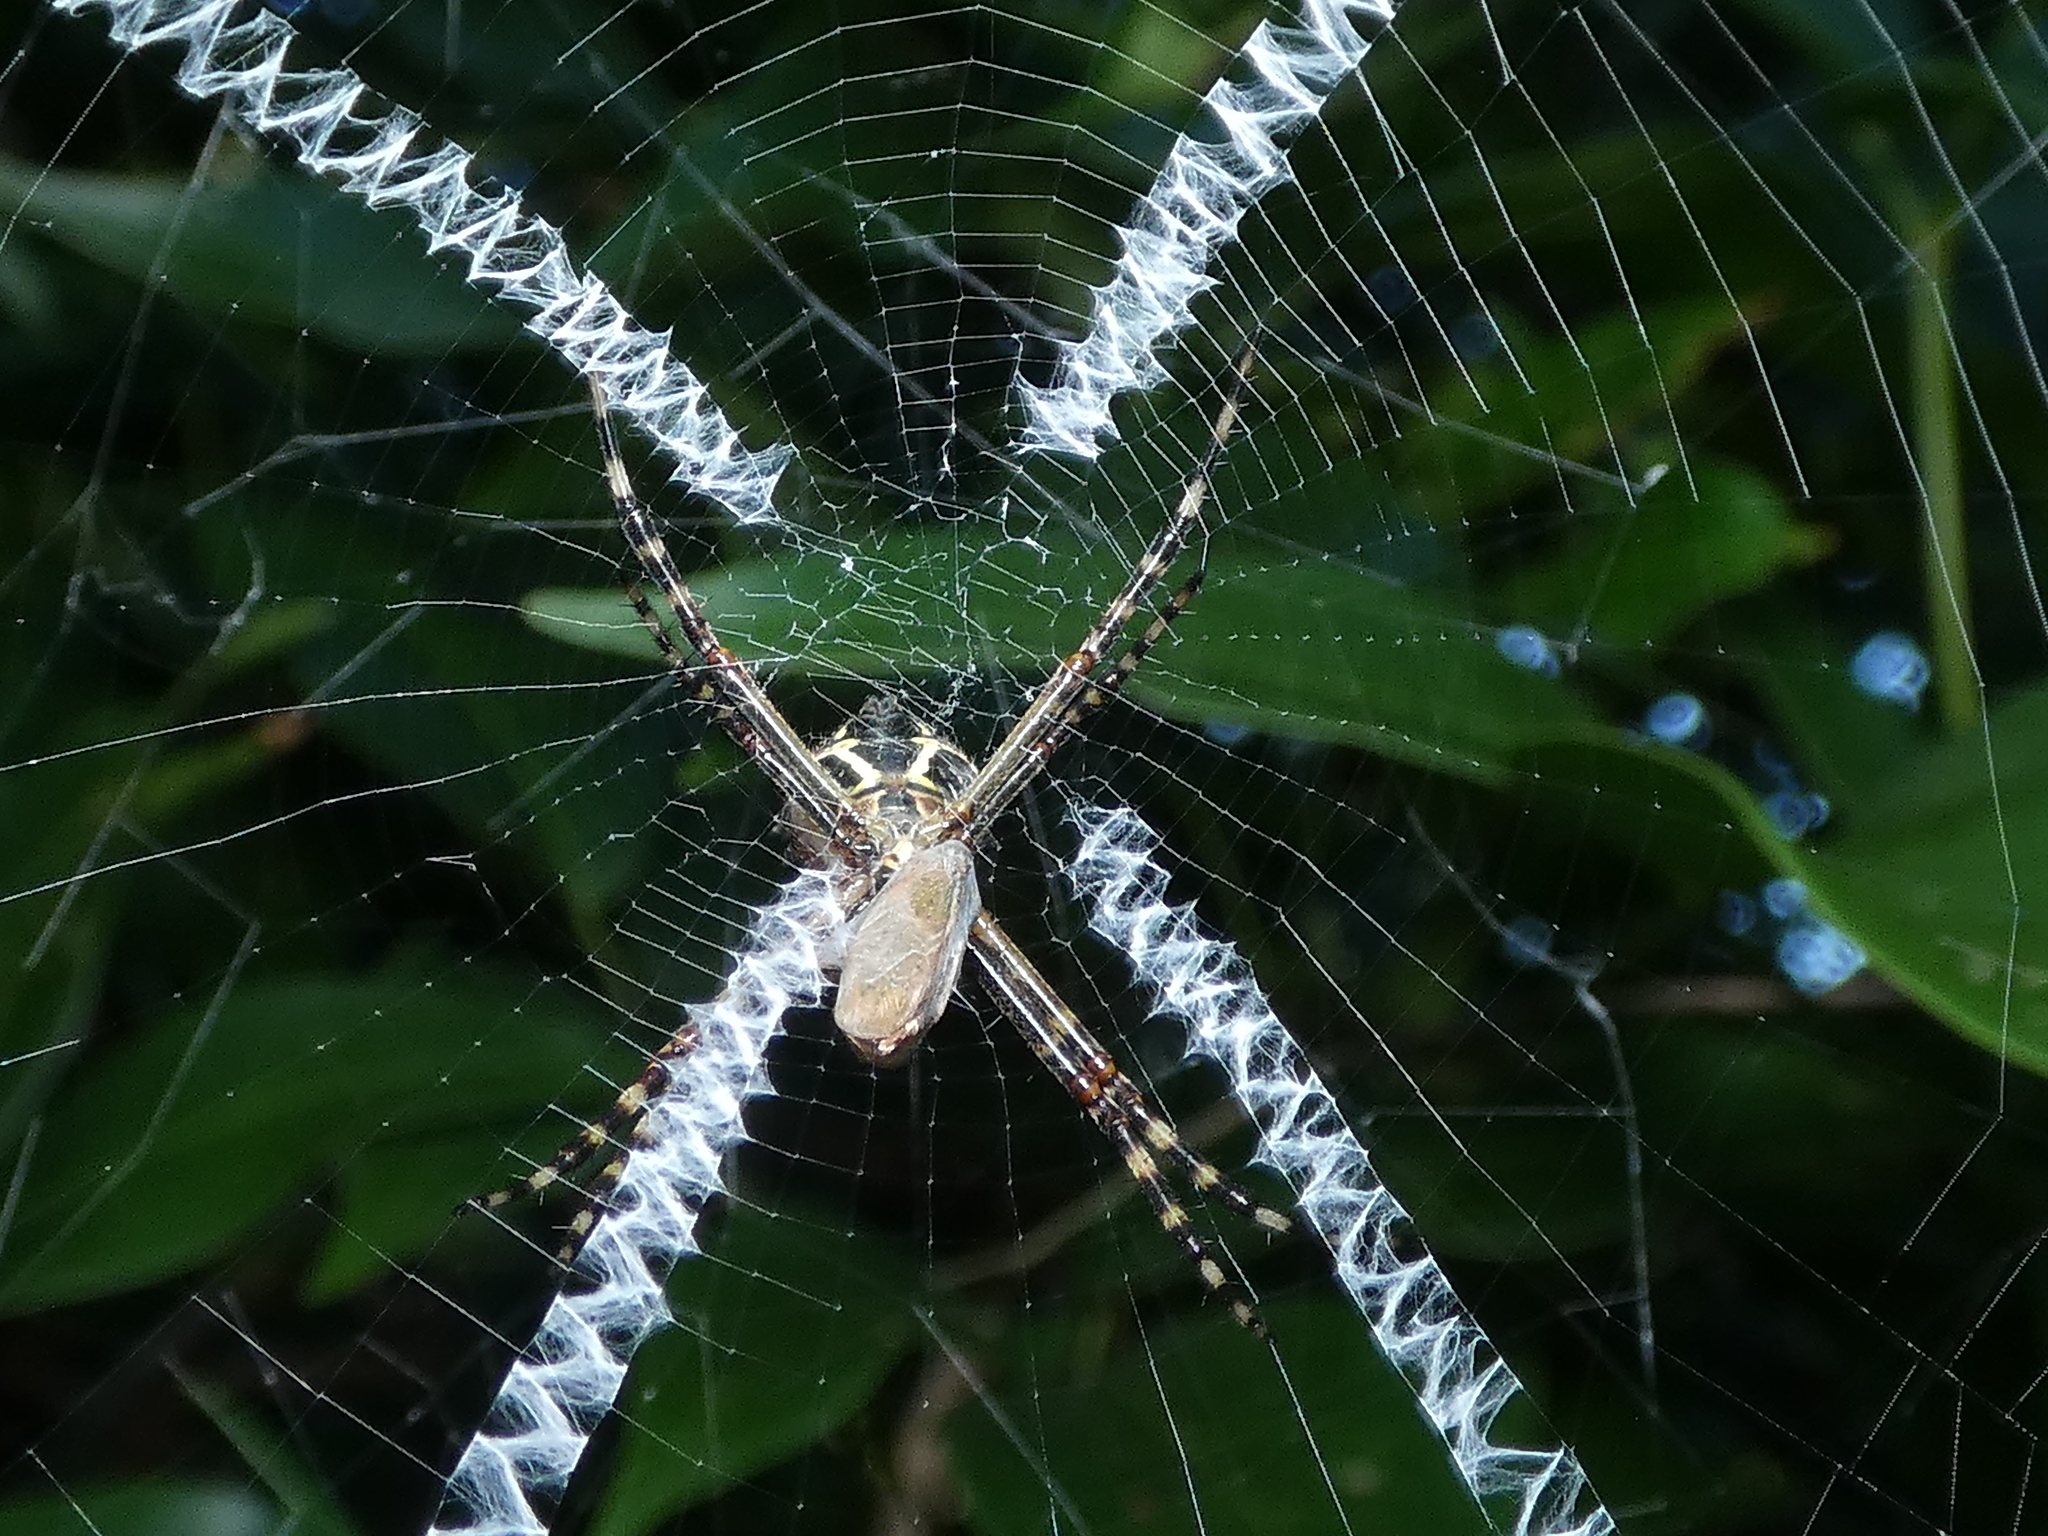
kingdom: Animalia
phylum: Arthropoda
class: Arachnida
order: Araneae
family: Araneidae
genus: Argiope
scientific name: Argiope argentata
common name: Orb weavers
